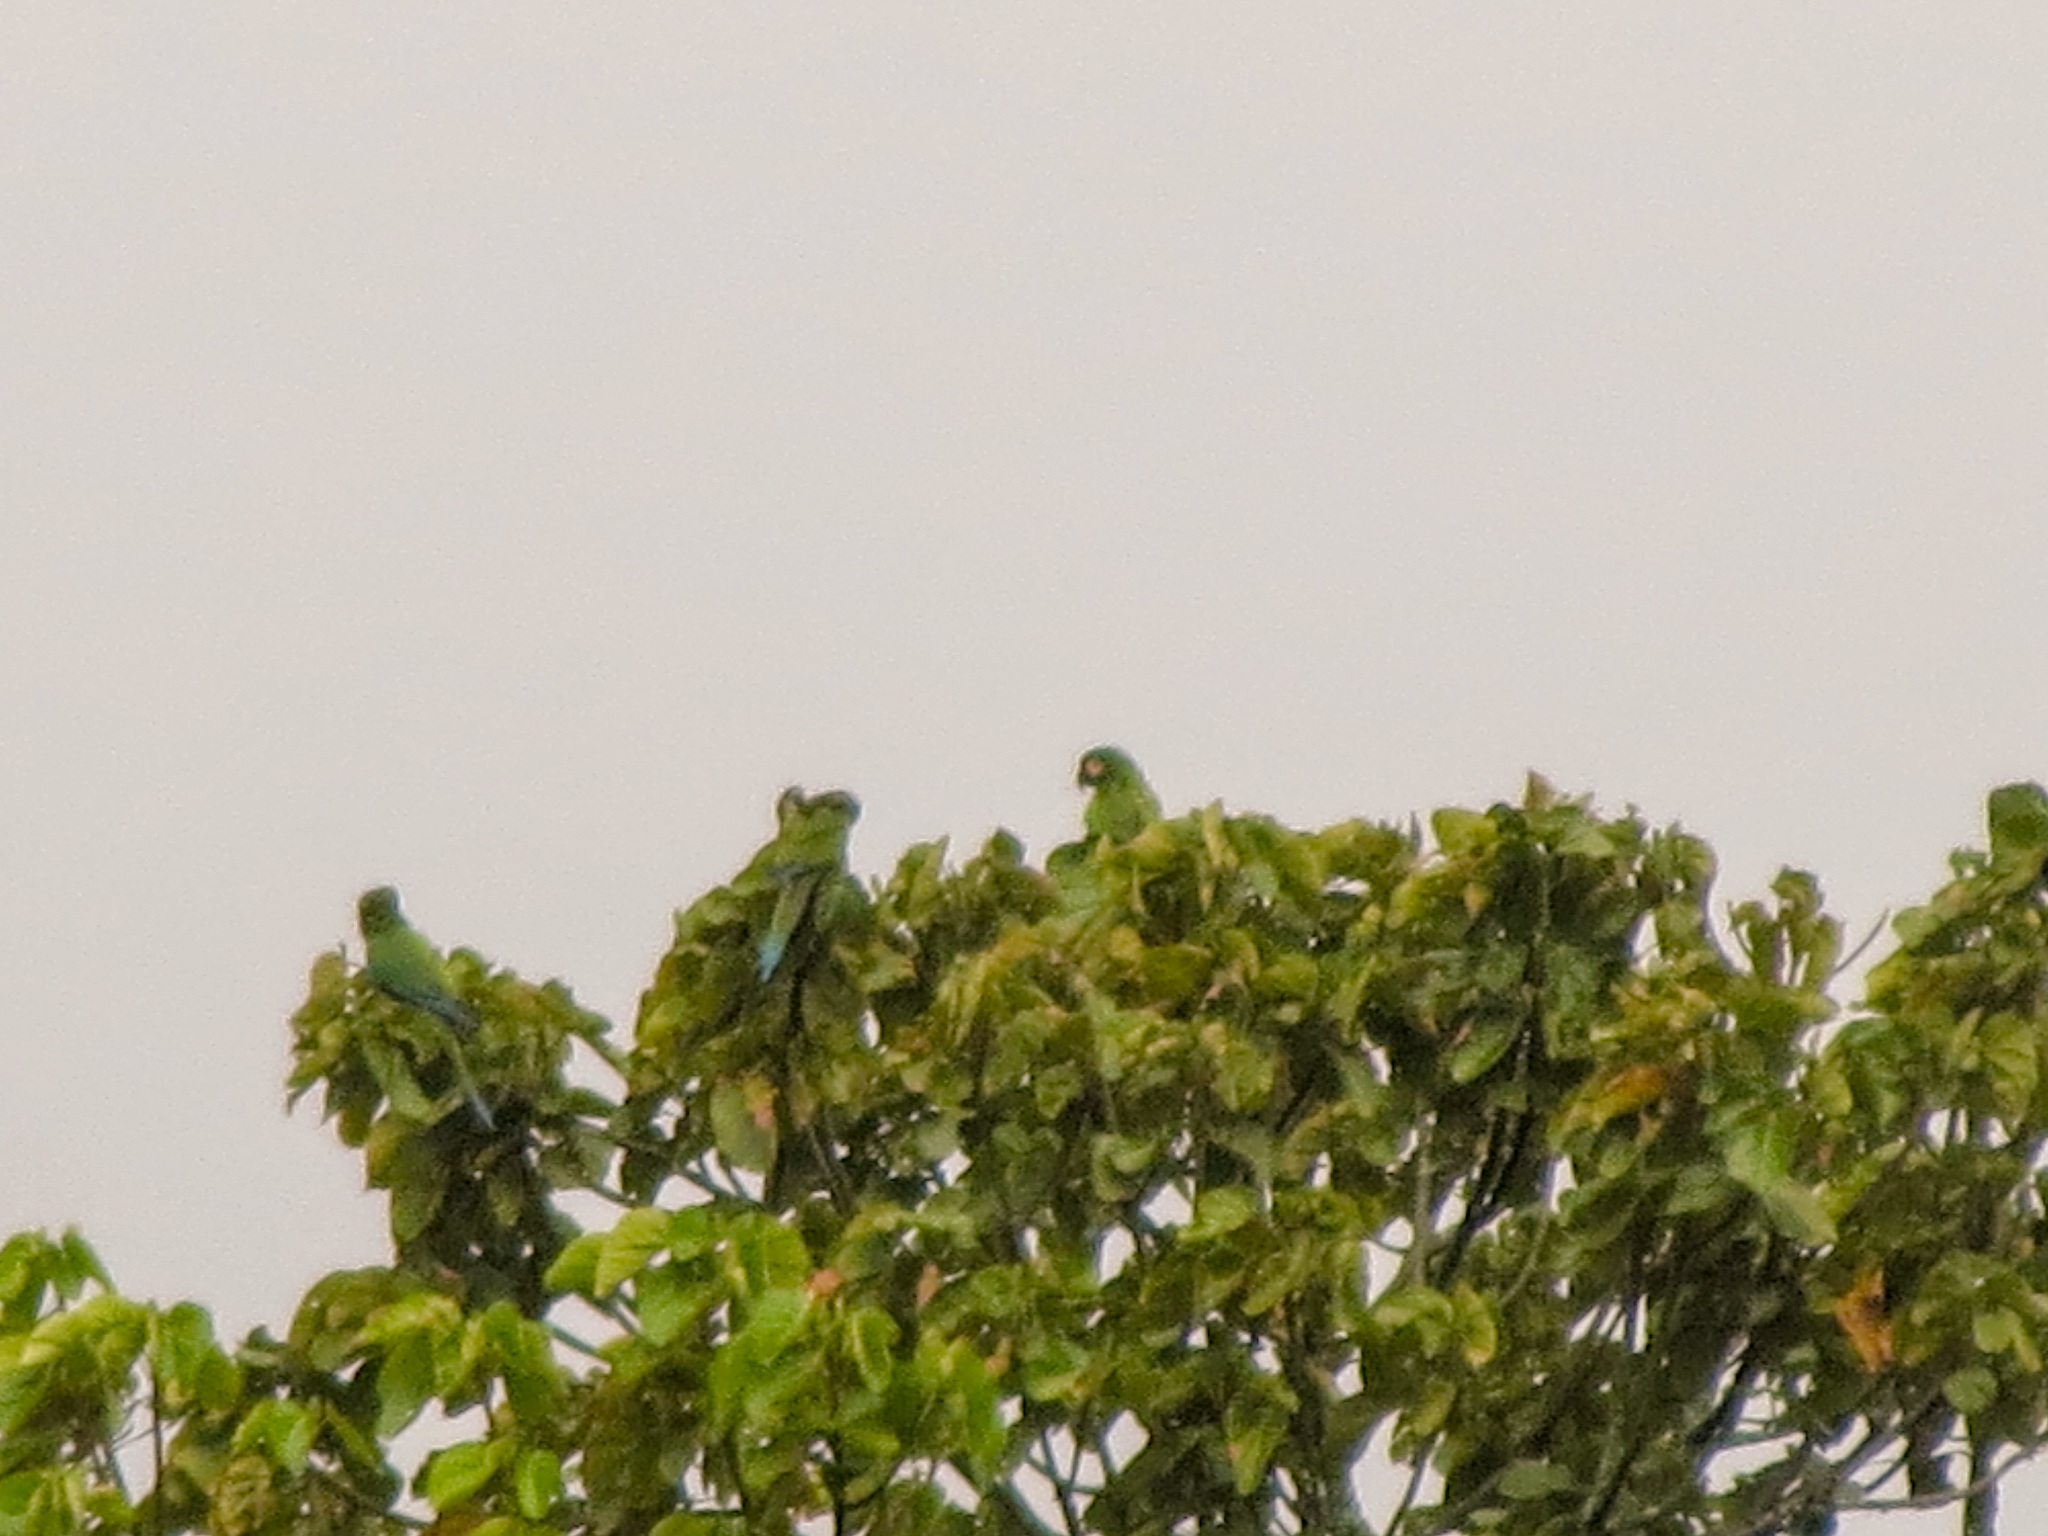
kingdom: Animalia
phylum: Chordata
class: Aves
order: Psittaciformes
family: Psittacidae
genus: Ara
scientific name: Ara severus
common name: Chestnut-fronted macaw
